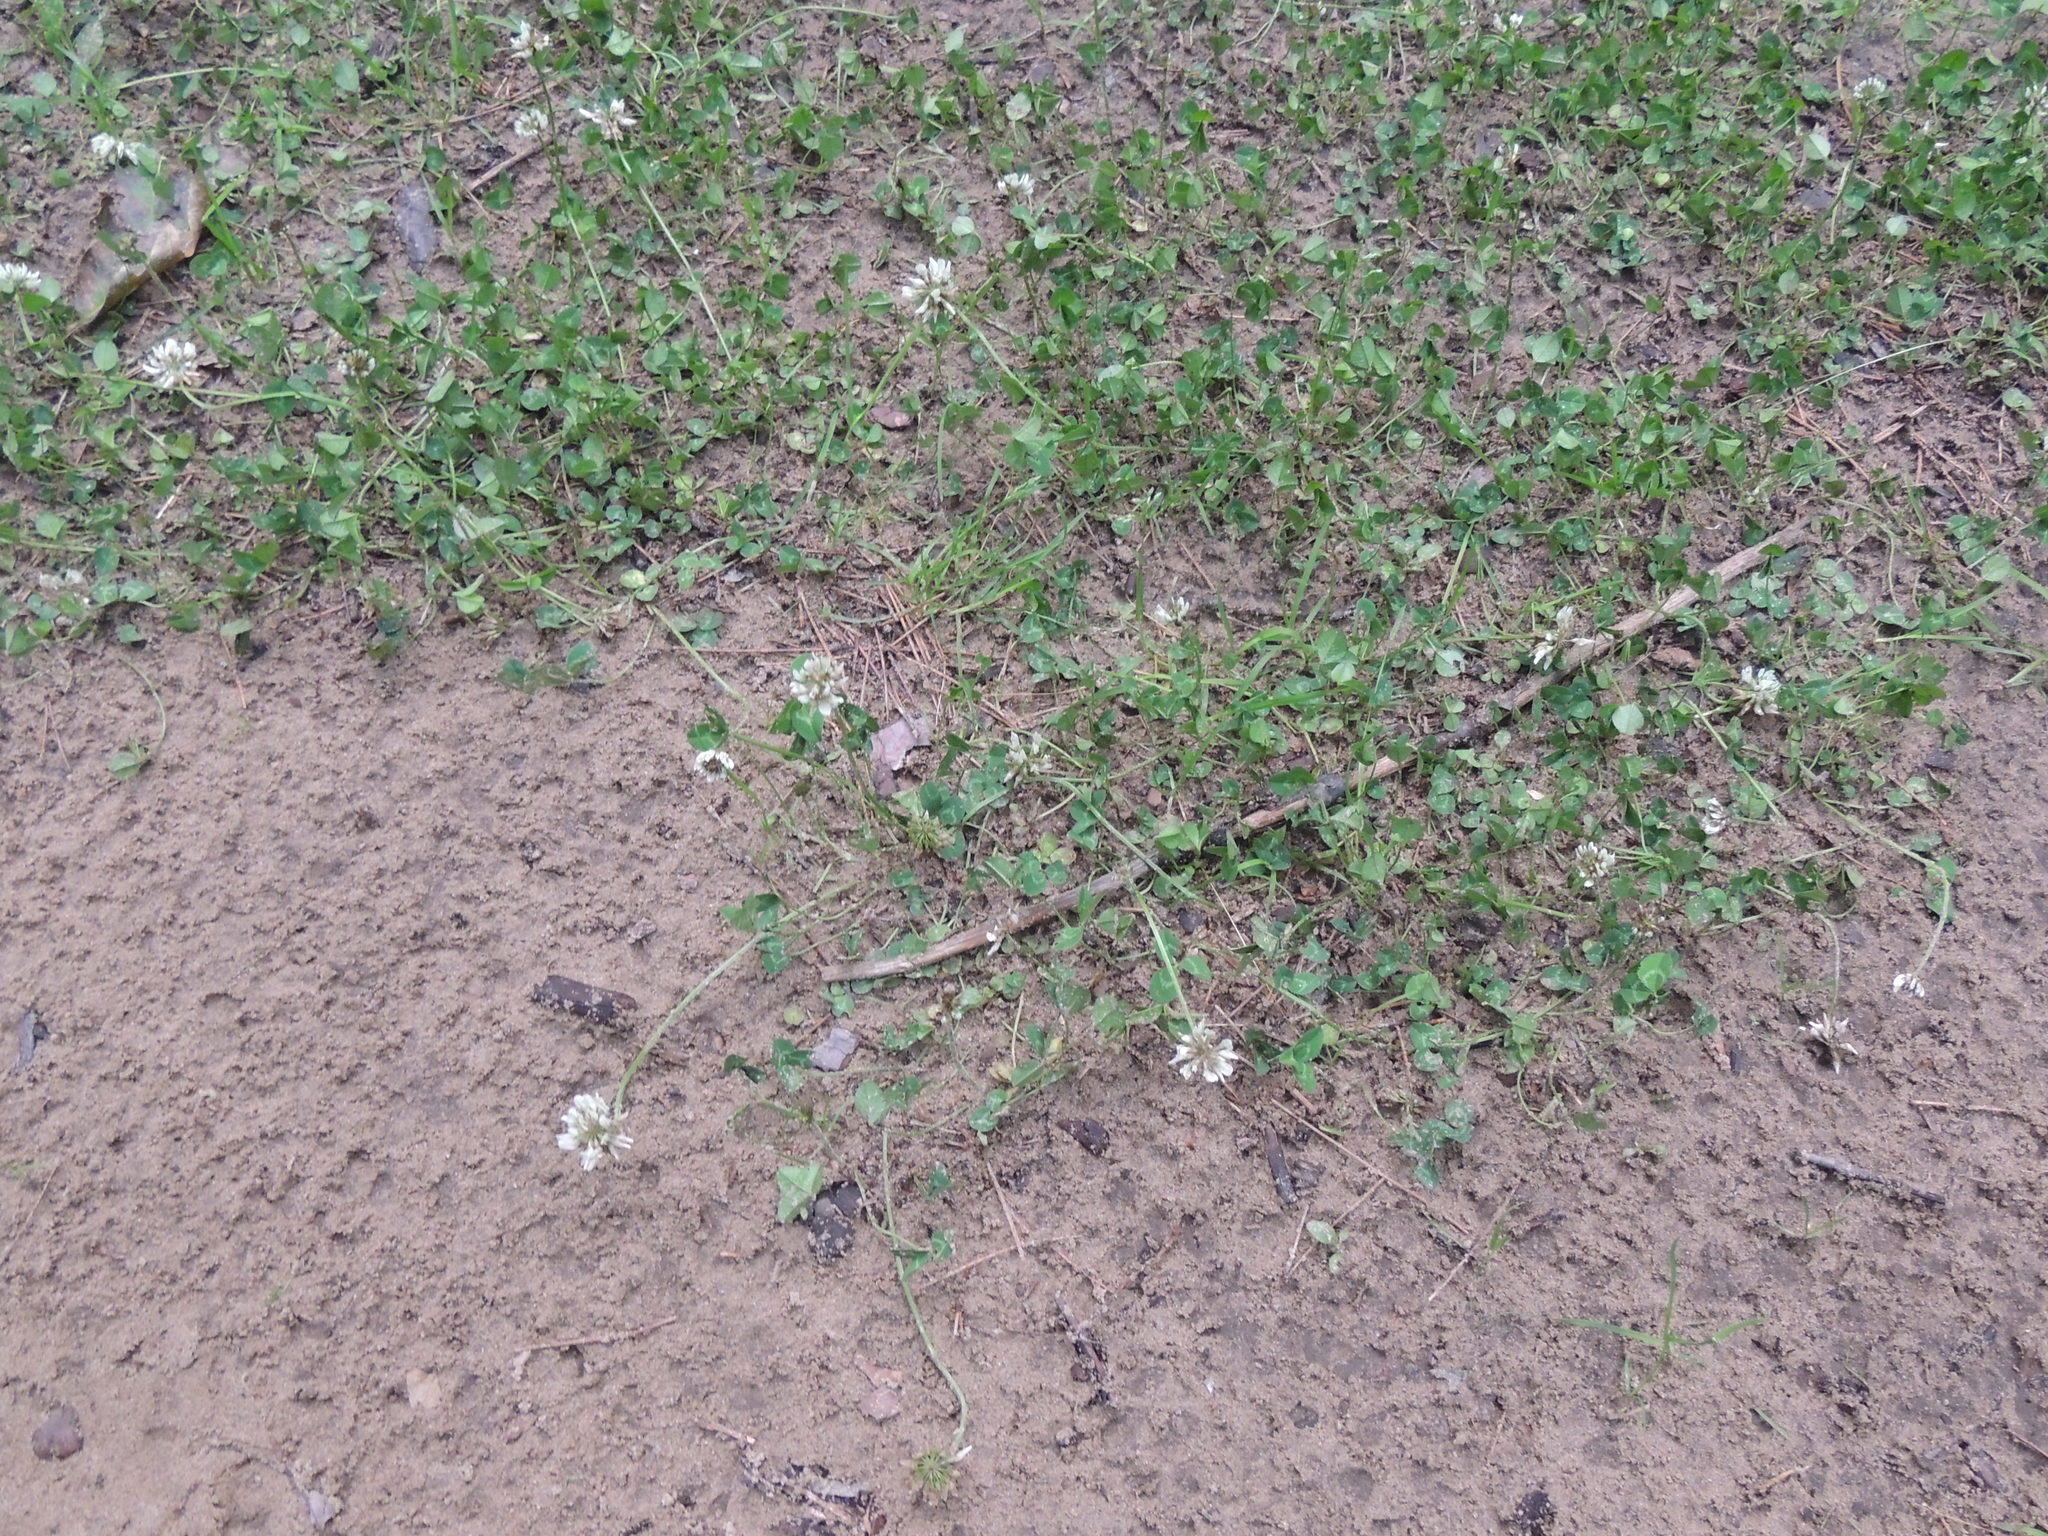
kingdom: Plantae
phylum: Tracheophyta
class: Magnoliopsida
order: Fabales
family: Fabaceae
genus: Trifolium
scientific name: Trifolium repens
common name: White clover
